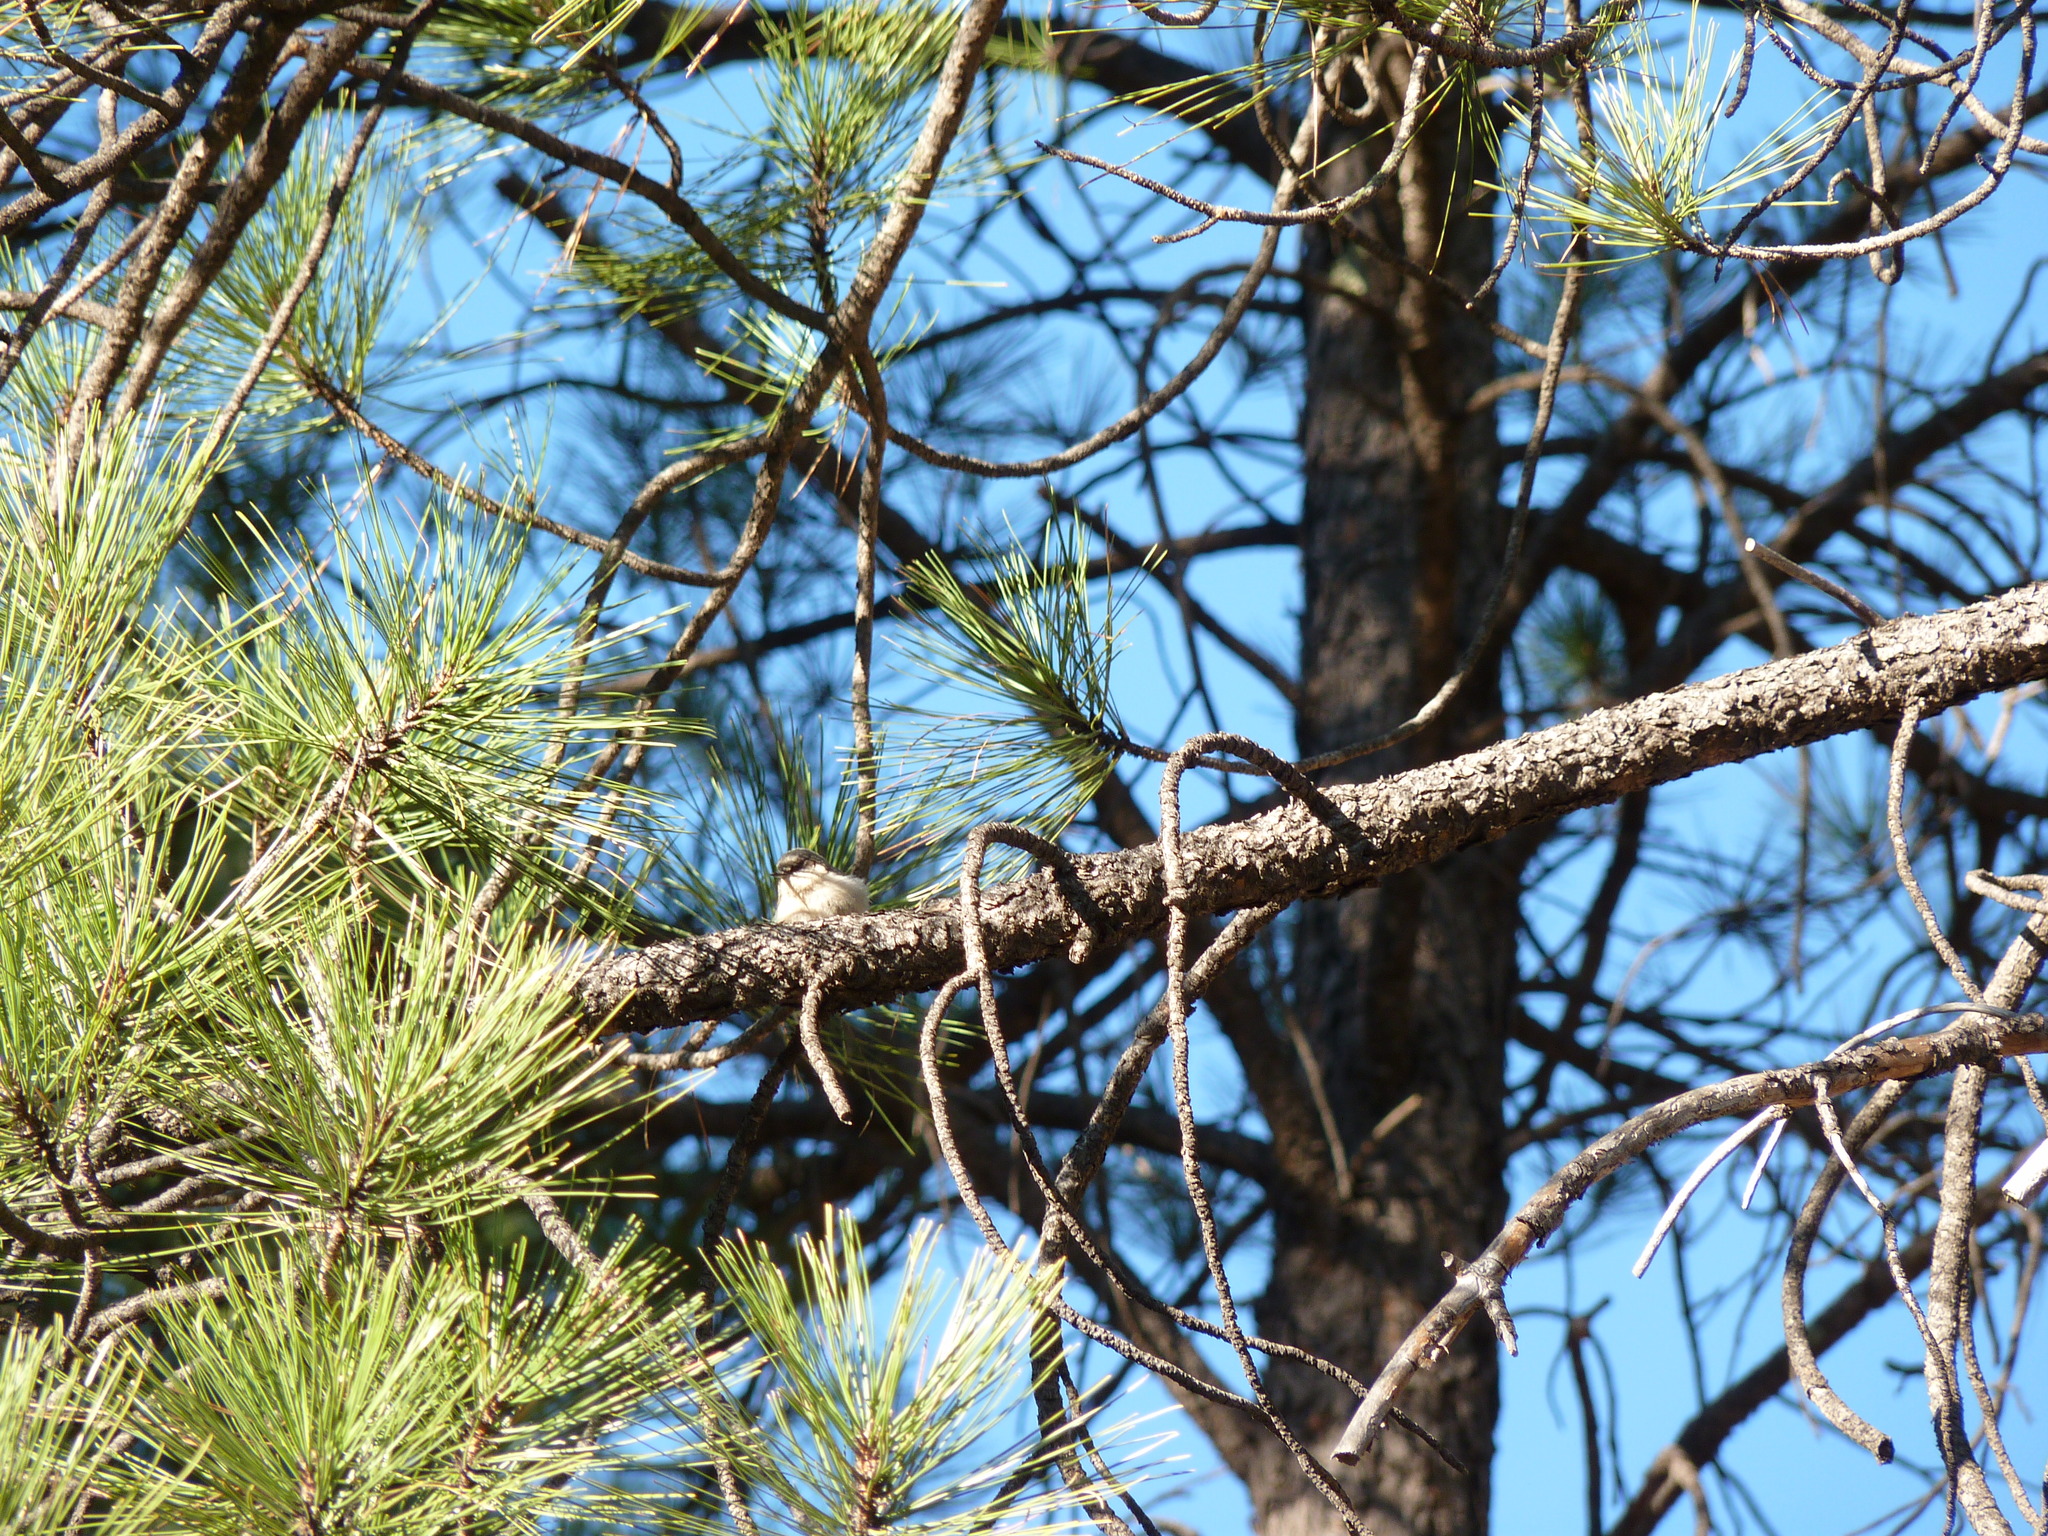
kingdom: Animalia
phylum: Chordata
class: Aves
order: Passeriformes
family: Sittidae
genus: Sitta
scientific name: Sitta pygmaea
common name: Pygmy nuthatch
